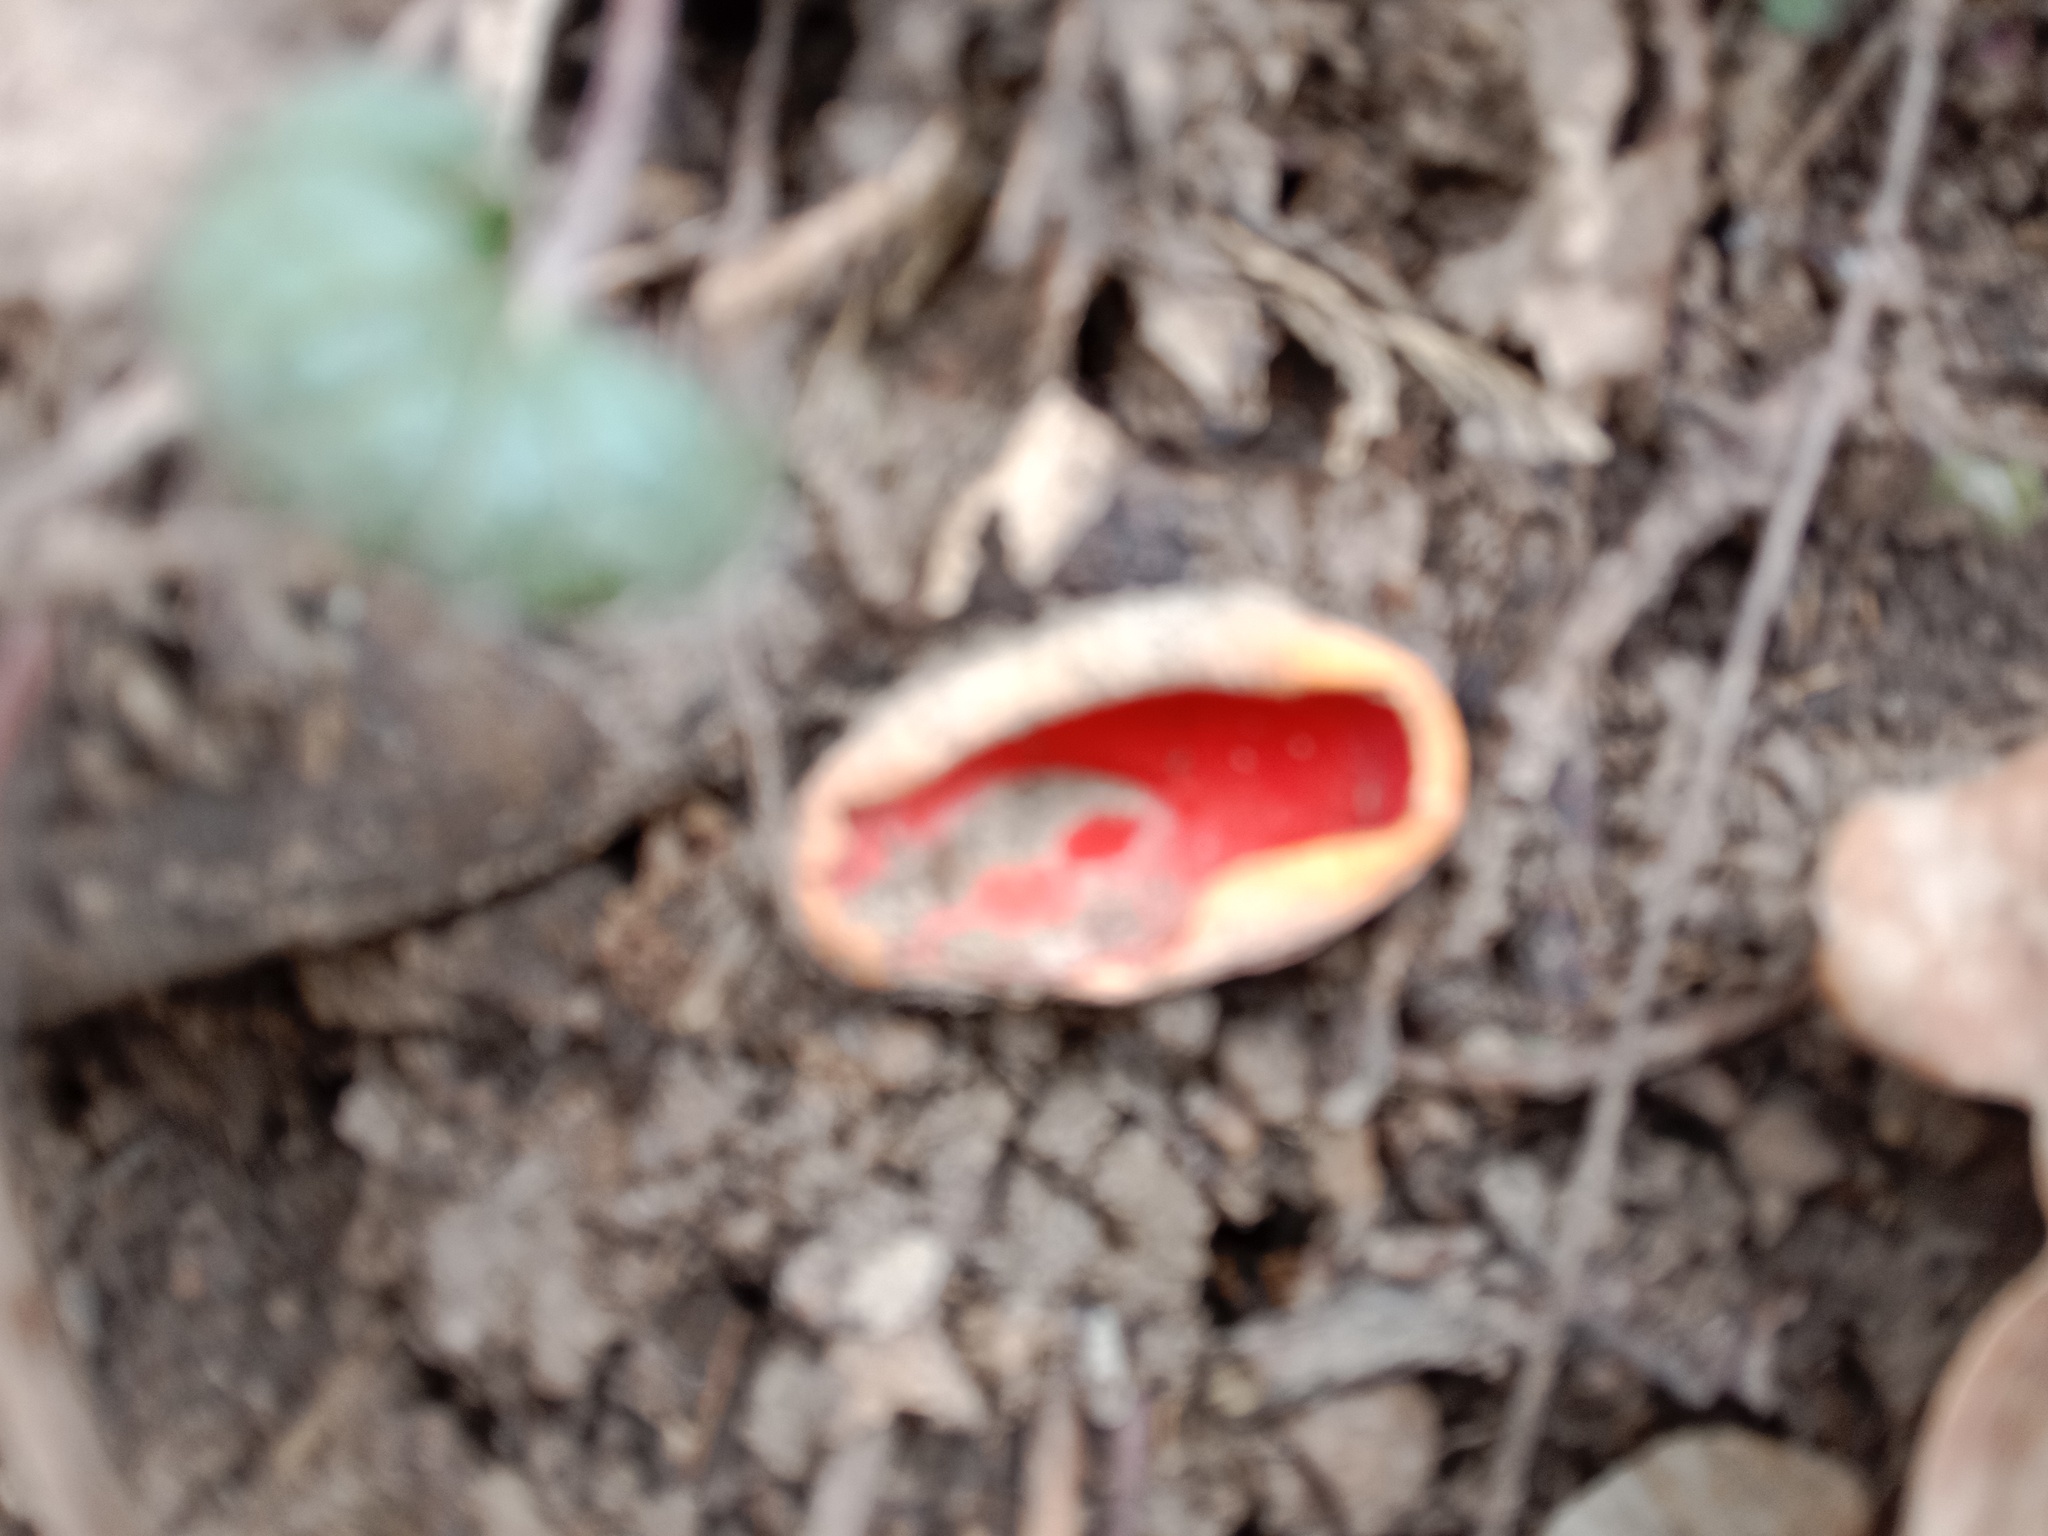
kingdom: Fungi
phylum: Ascomycota
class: Pezizomycetes
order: Pezizales
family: Sarcoscyphaceae
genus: Sarcoscypha
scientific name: Sarcoscypha
